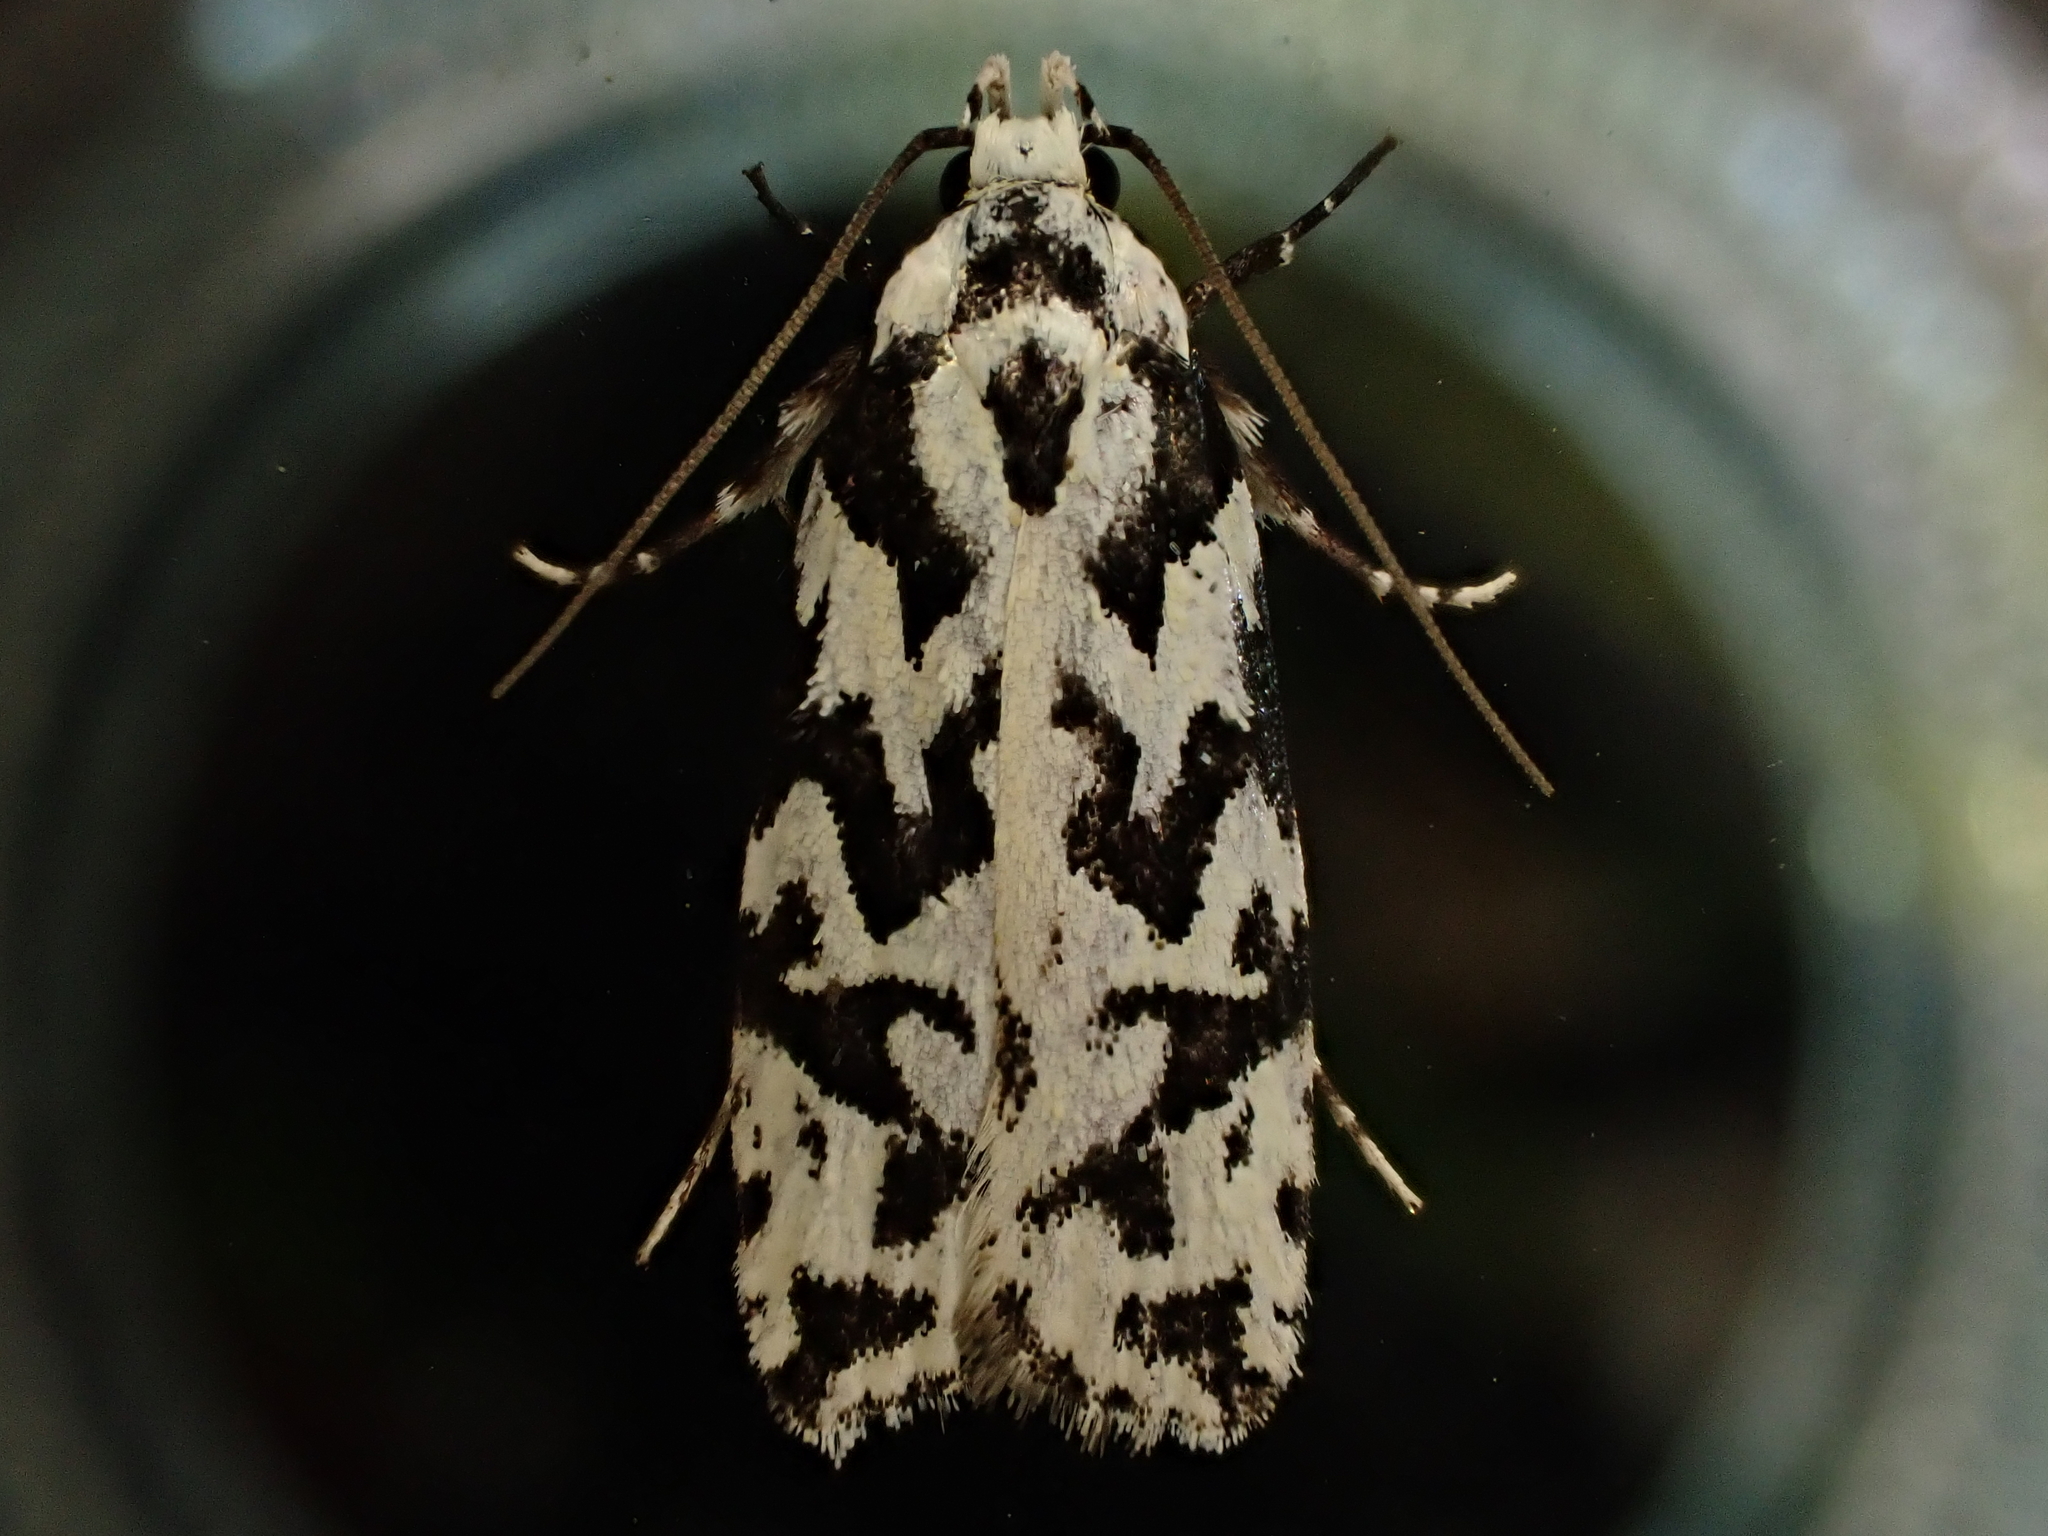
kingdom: Animalia
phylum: Arthropoda
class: Insecta
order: Lepidoptera
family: Oecophoridae
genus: Izatha
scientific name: Izatha
